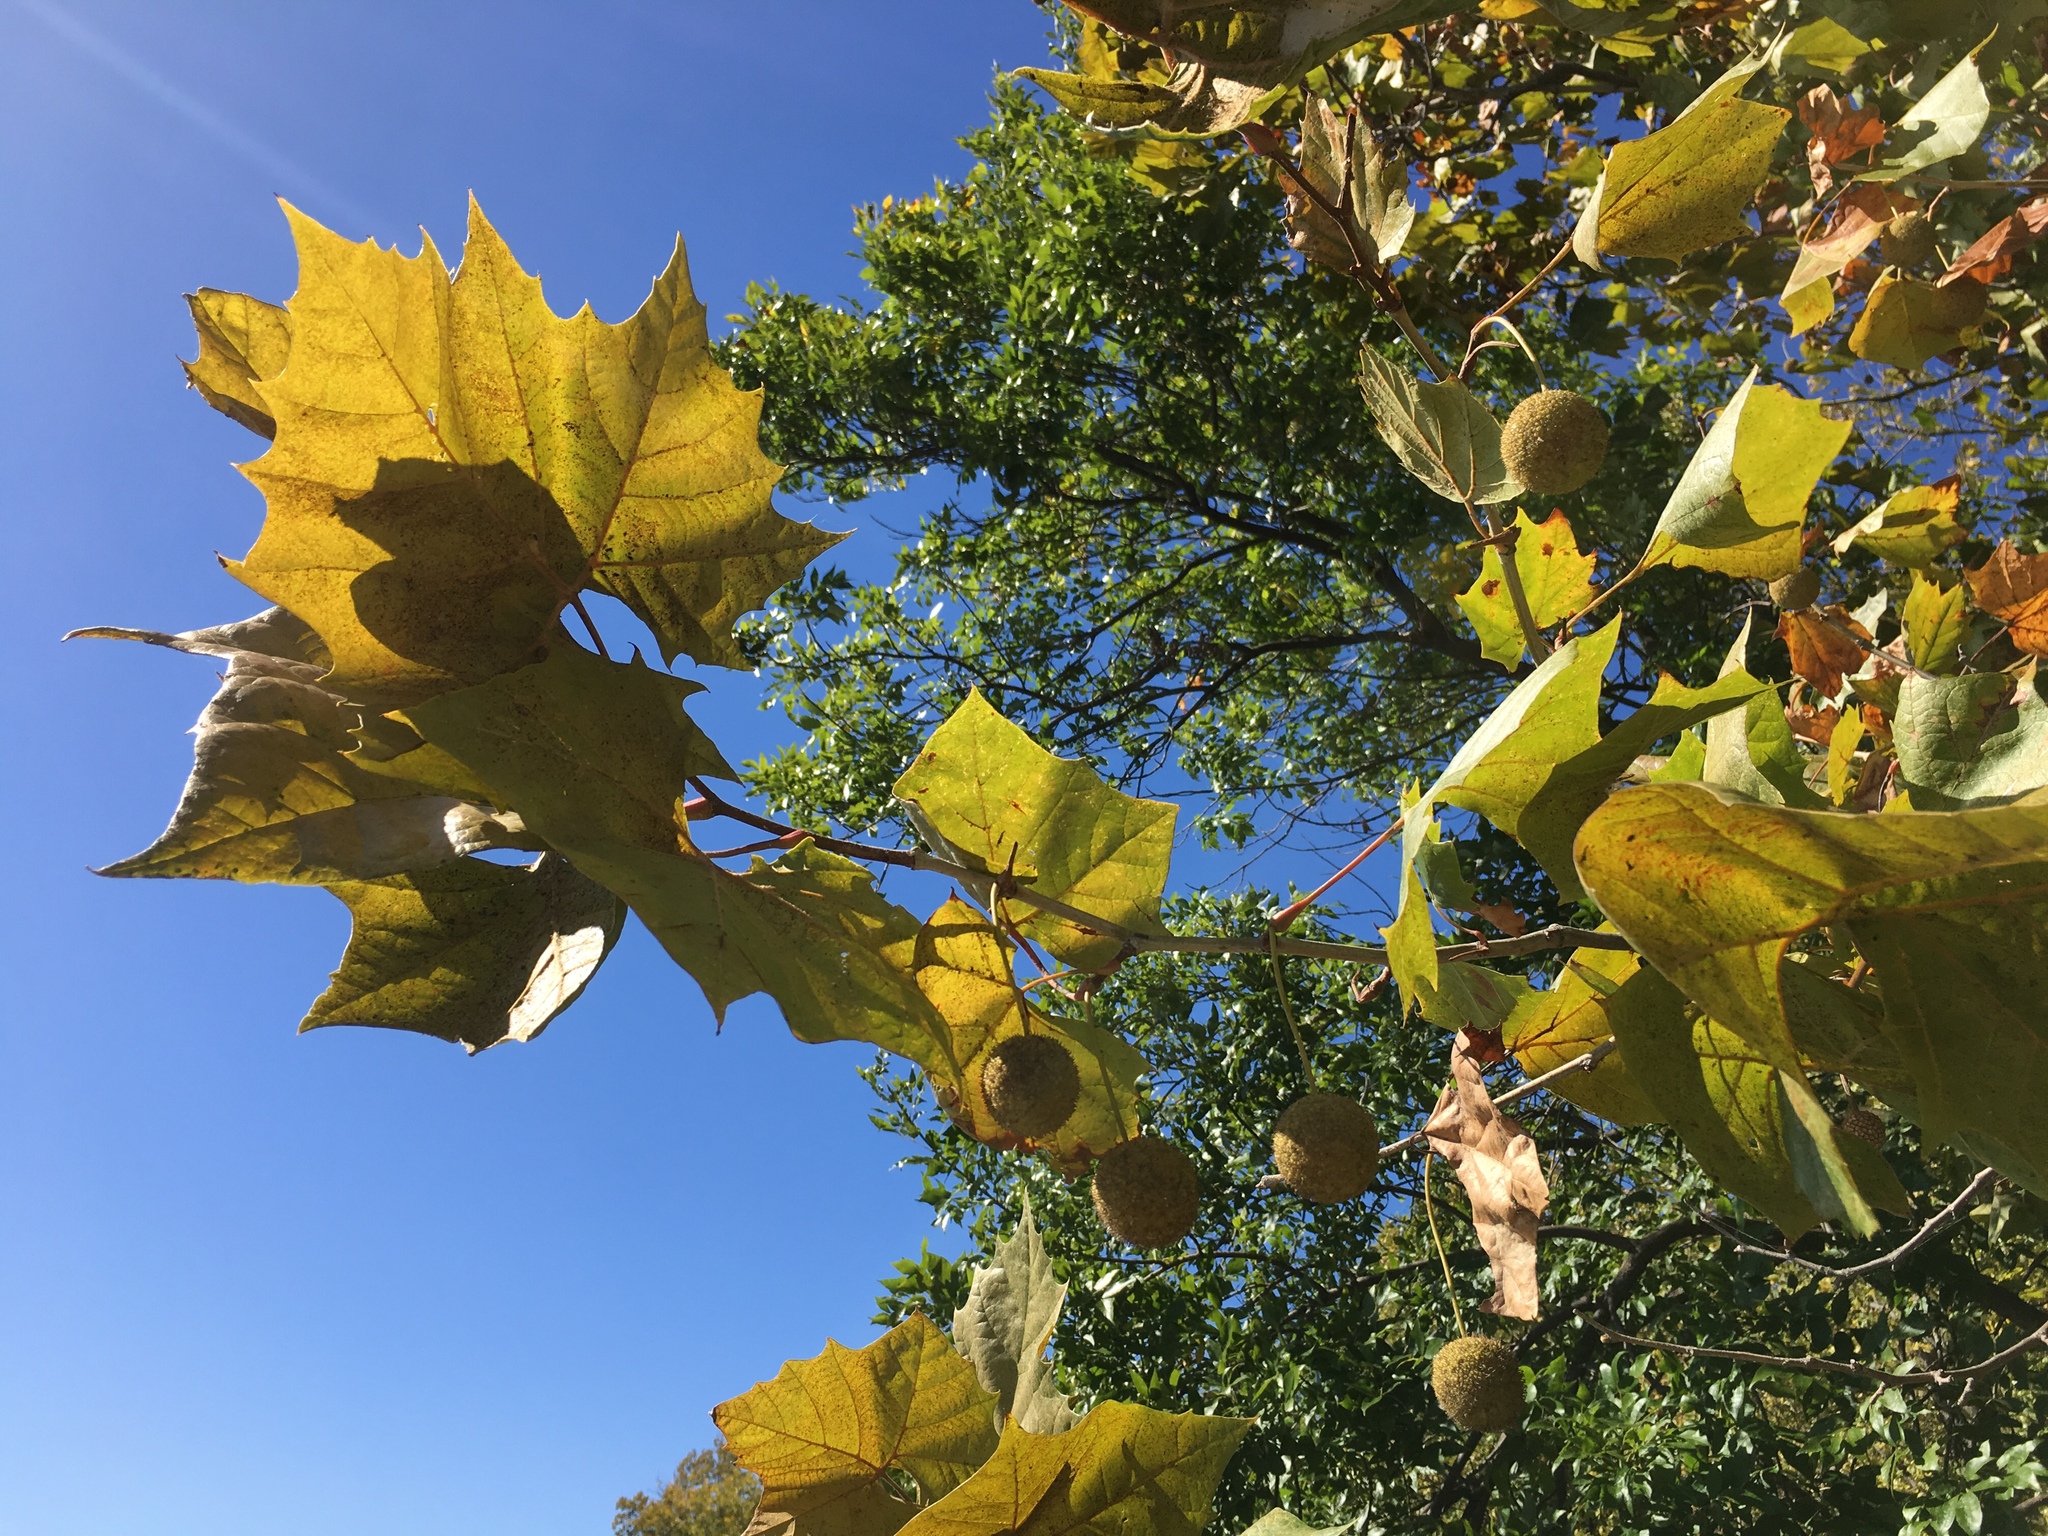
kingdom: Plantae
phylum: Tracheophyta
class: Magnoliopsida
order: Proteales
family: Platanaceae
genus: Platanus
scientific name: Platanus occidentalis
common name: American sycamore
